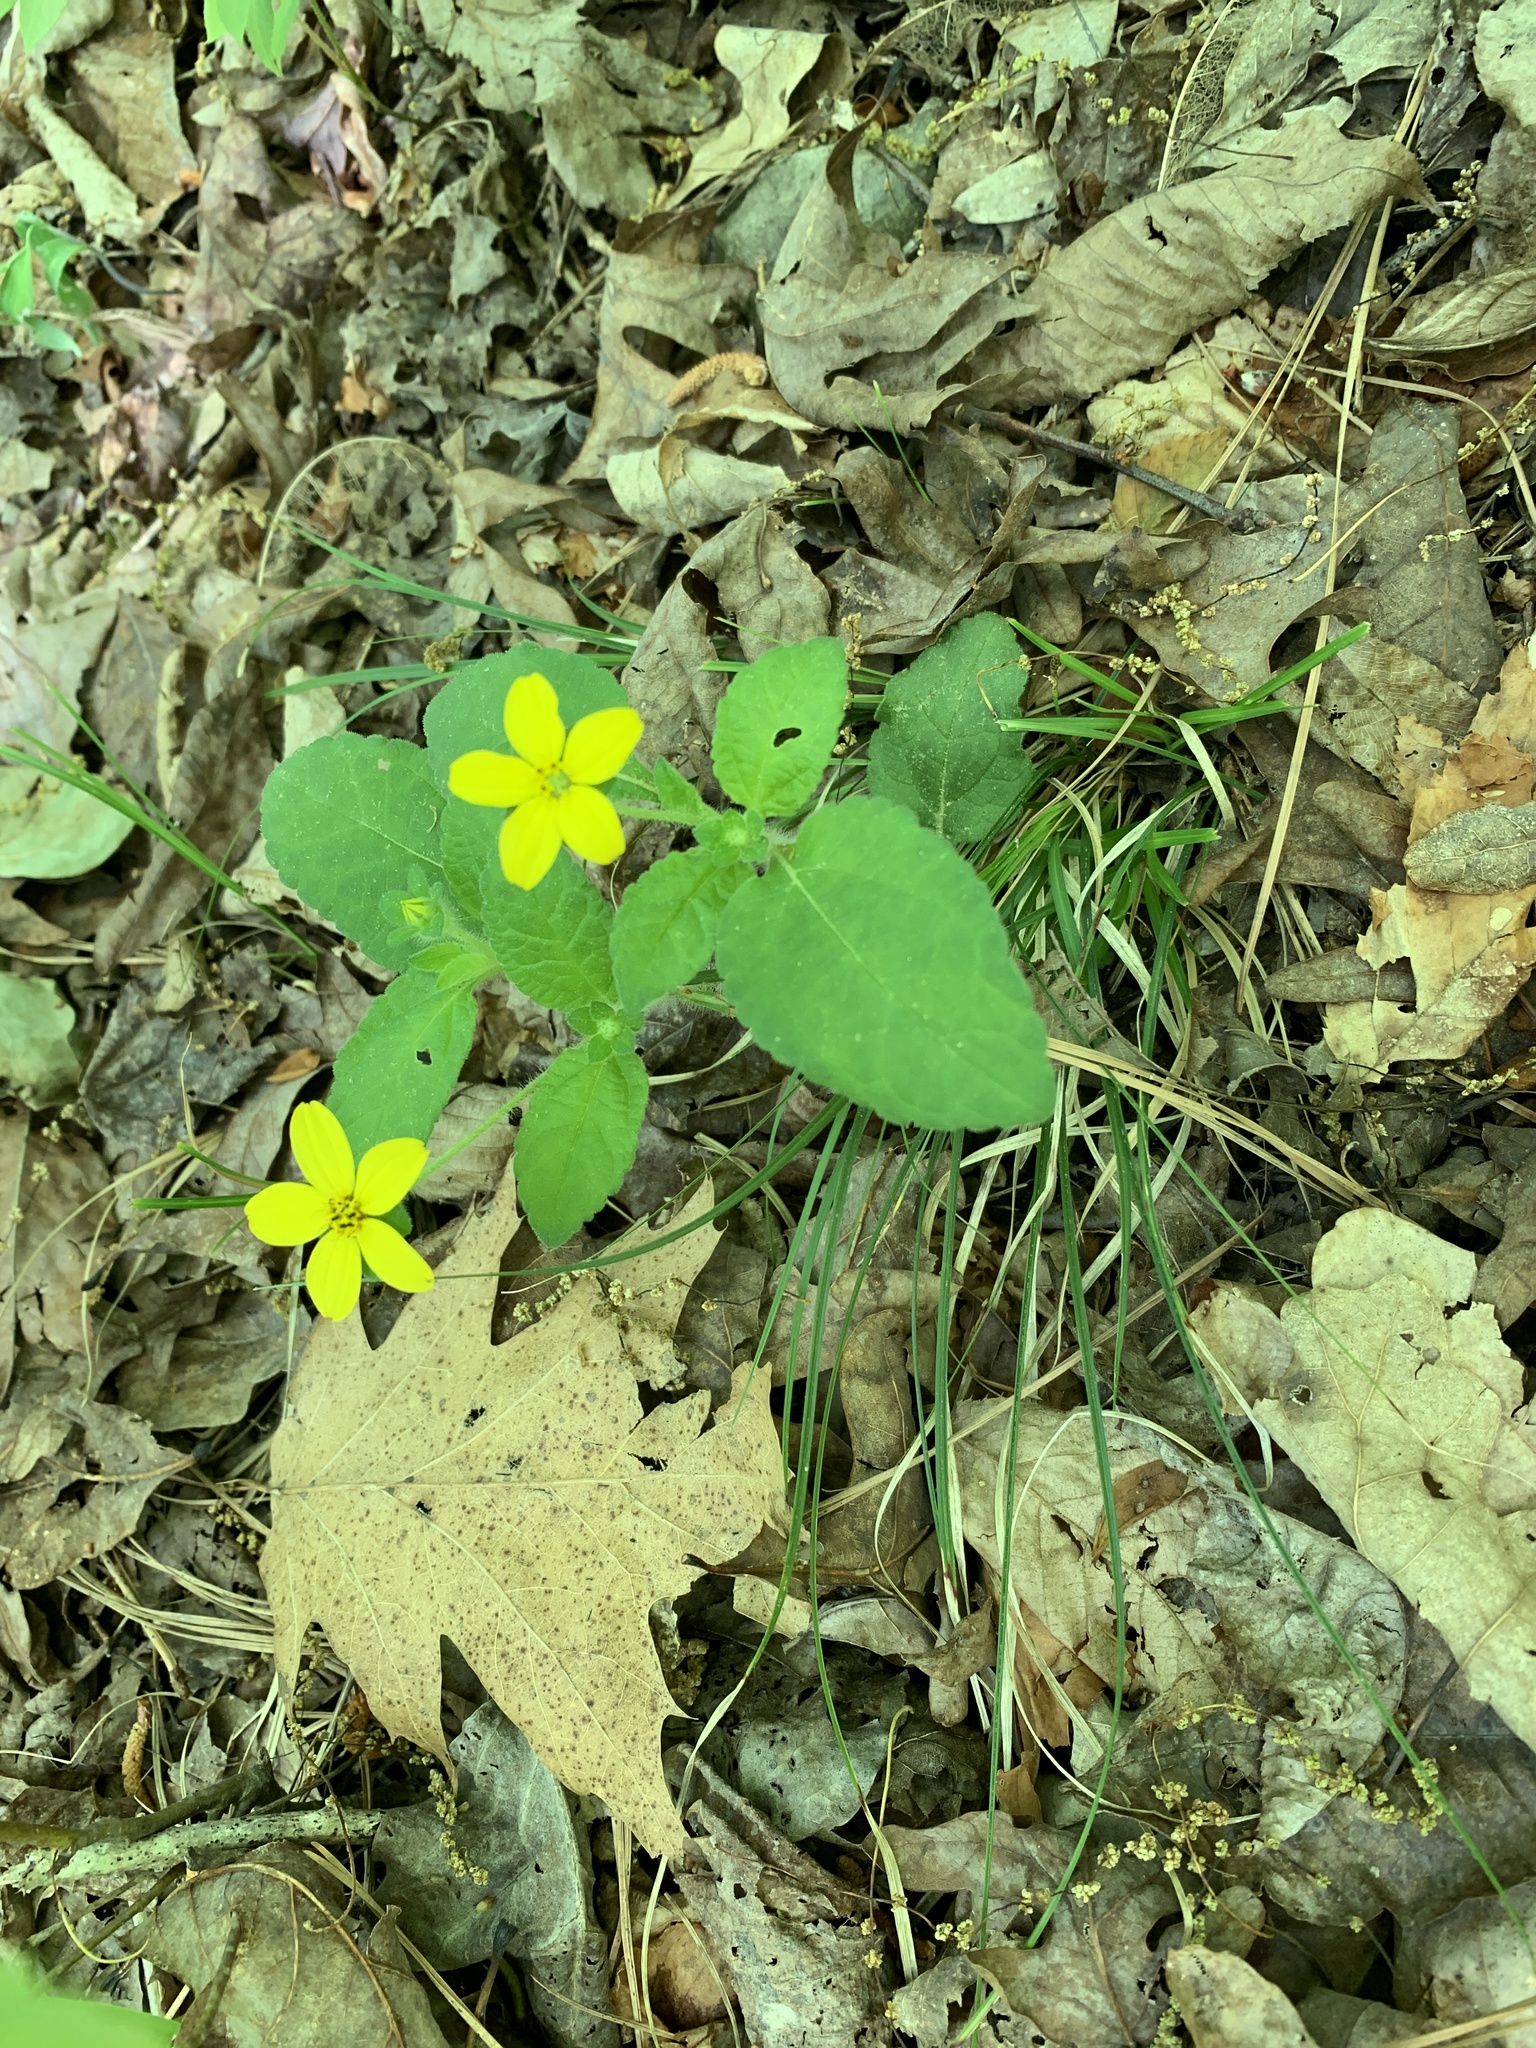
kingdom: Plantae
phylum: Tracheophyta
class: Magnoliopsida
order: Asterales
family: Asteraceae
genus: Chrysogonum
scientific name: Chrysogonum virginianum
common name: Golden-knee
